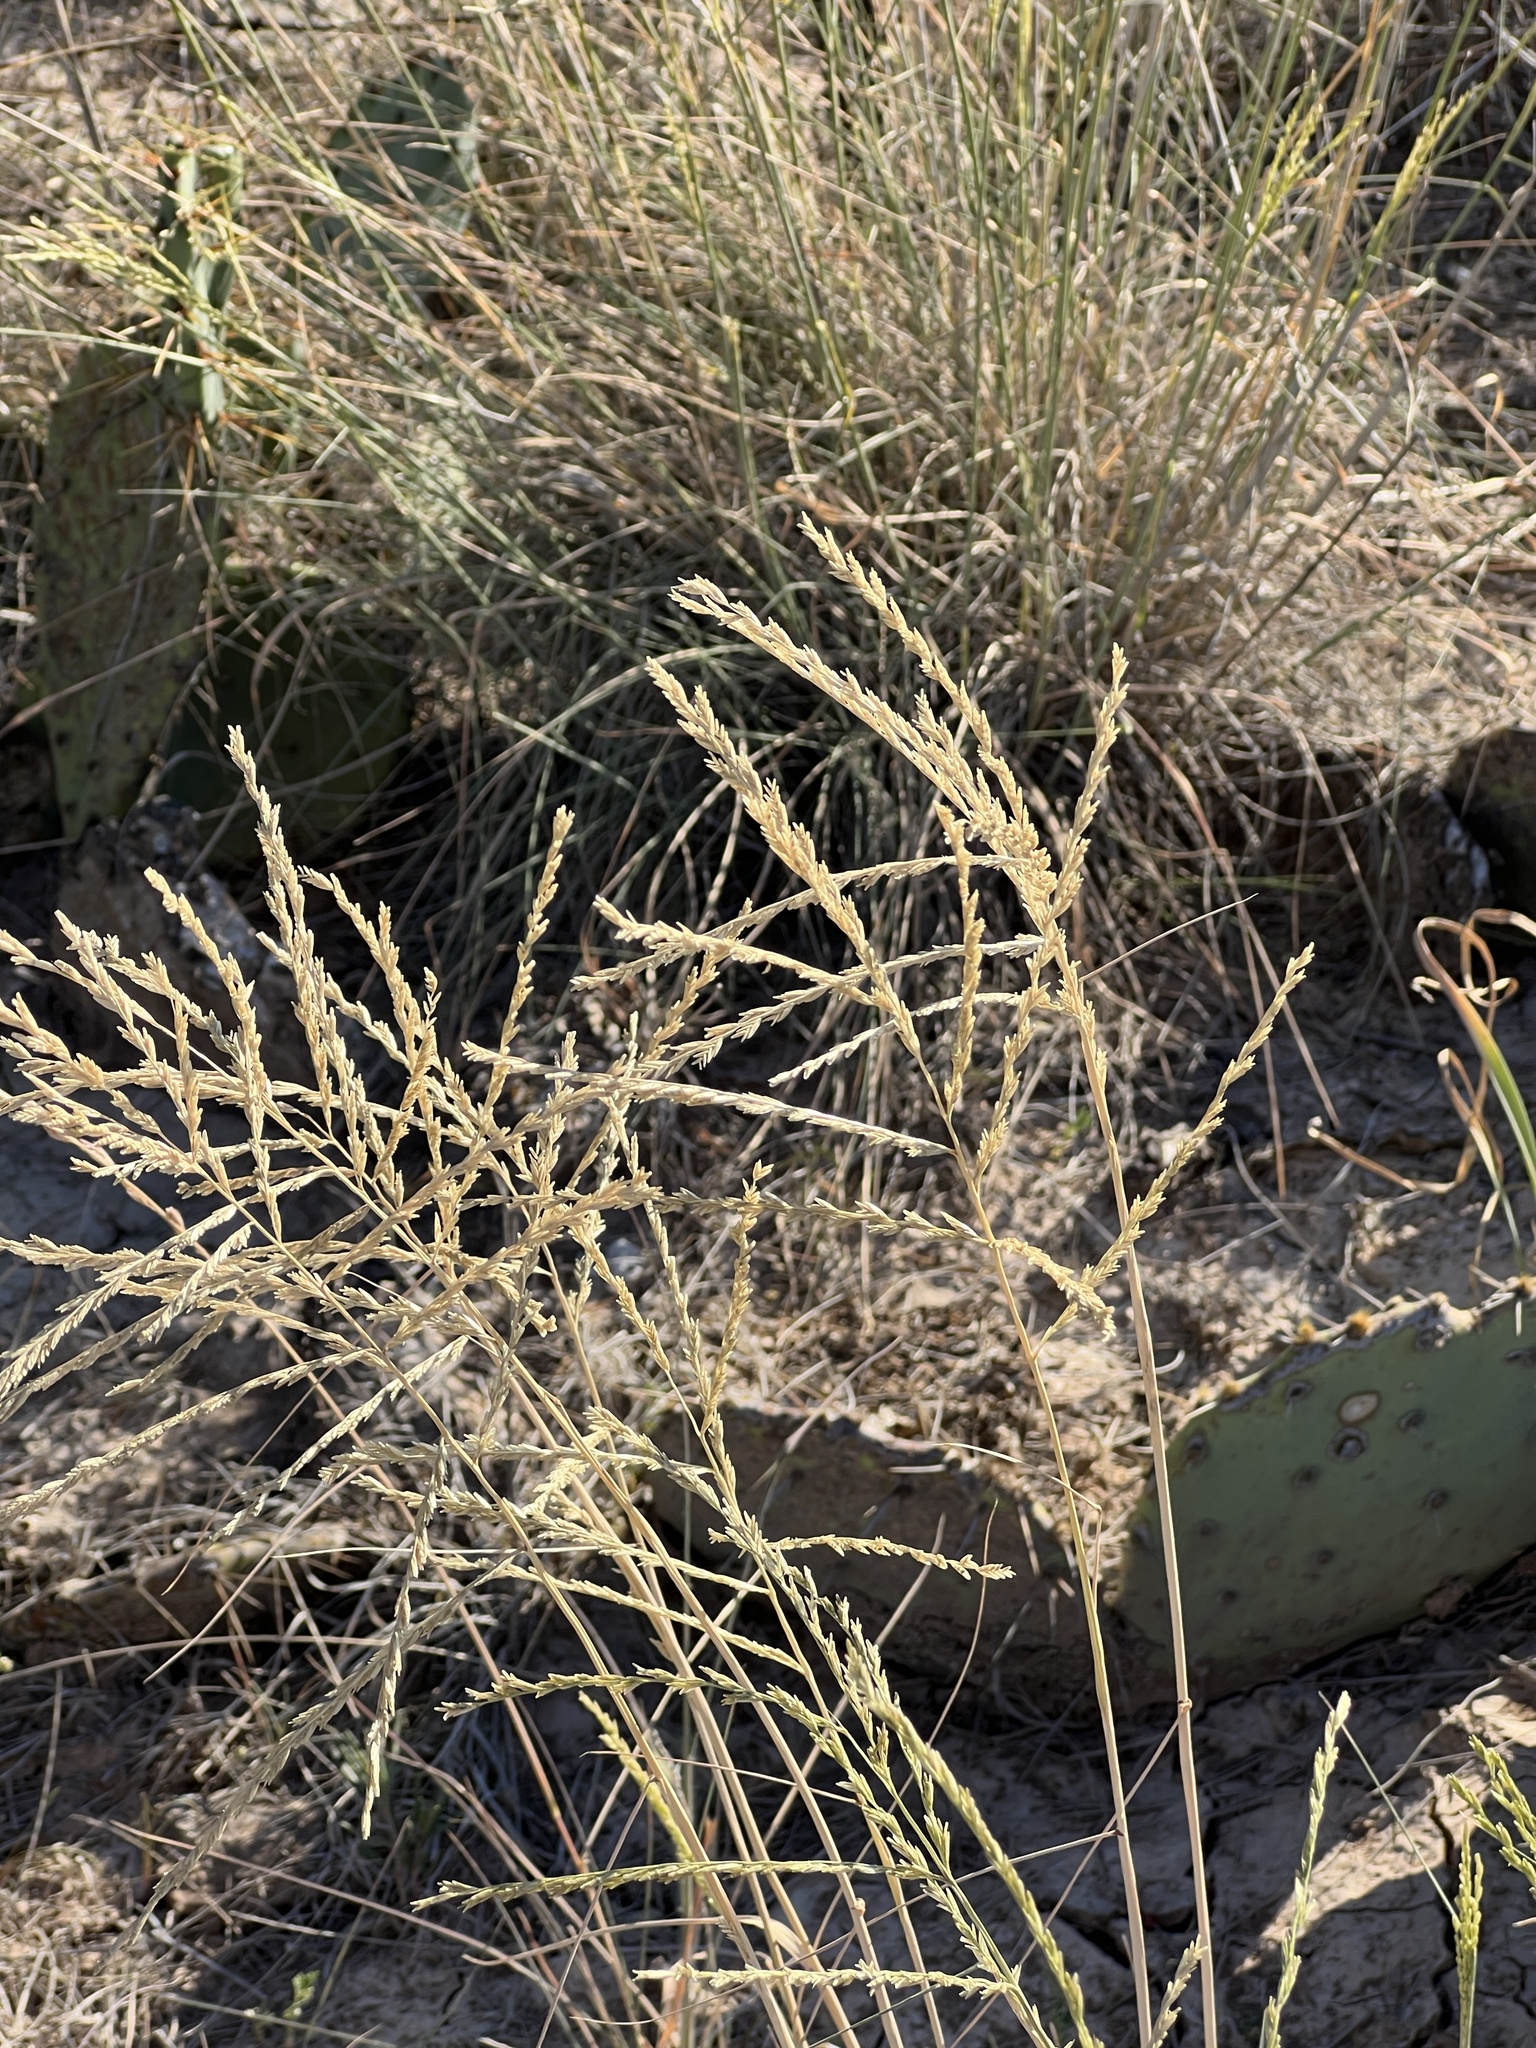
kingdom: Plantae
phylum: Tracheophyta
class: Liliopsida
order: Poales
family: Poaceae
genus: Disakisperma
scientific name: Disakisperma dubium
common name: Green sprangletop
